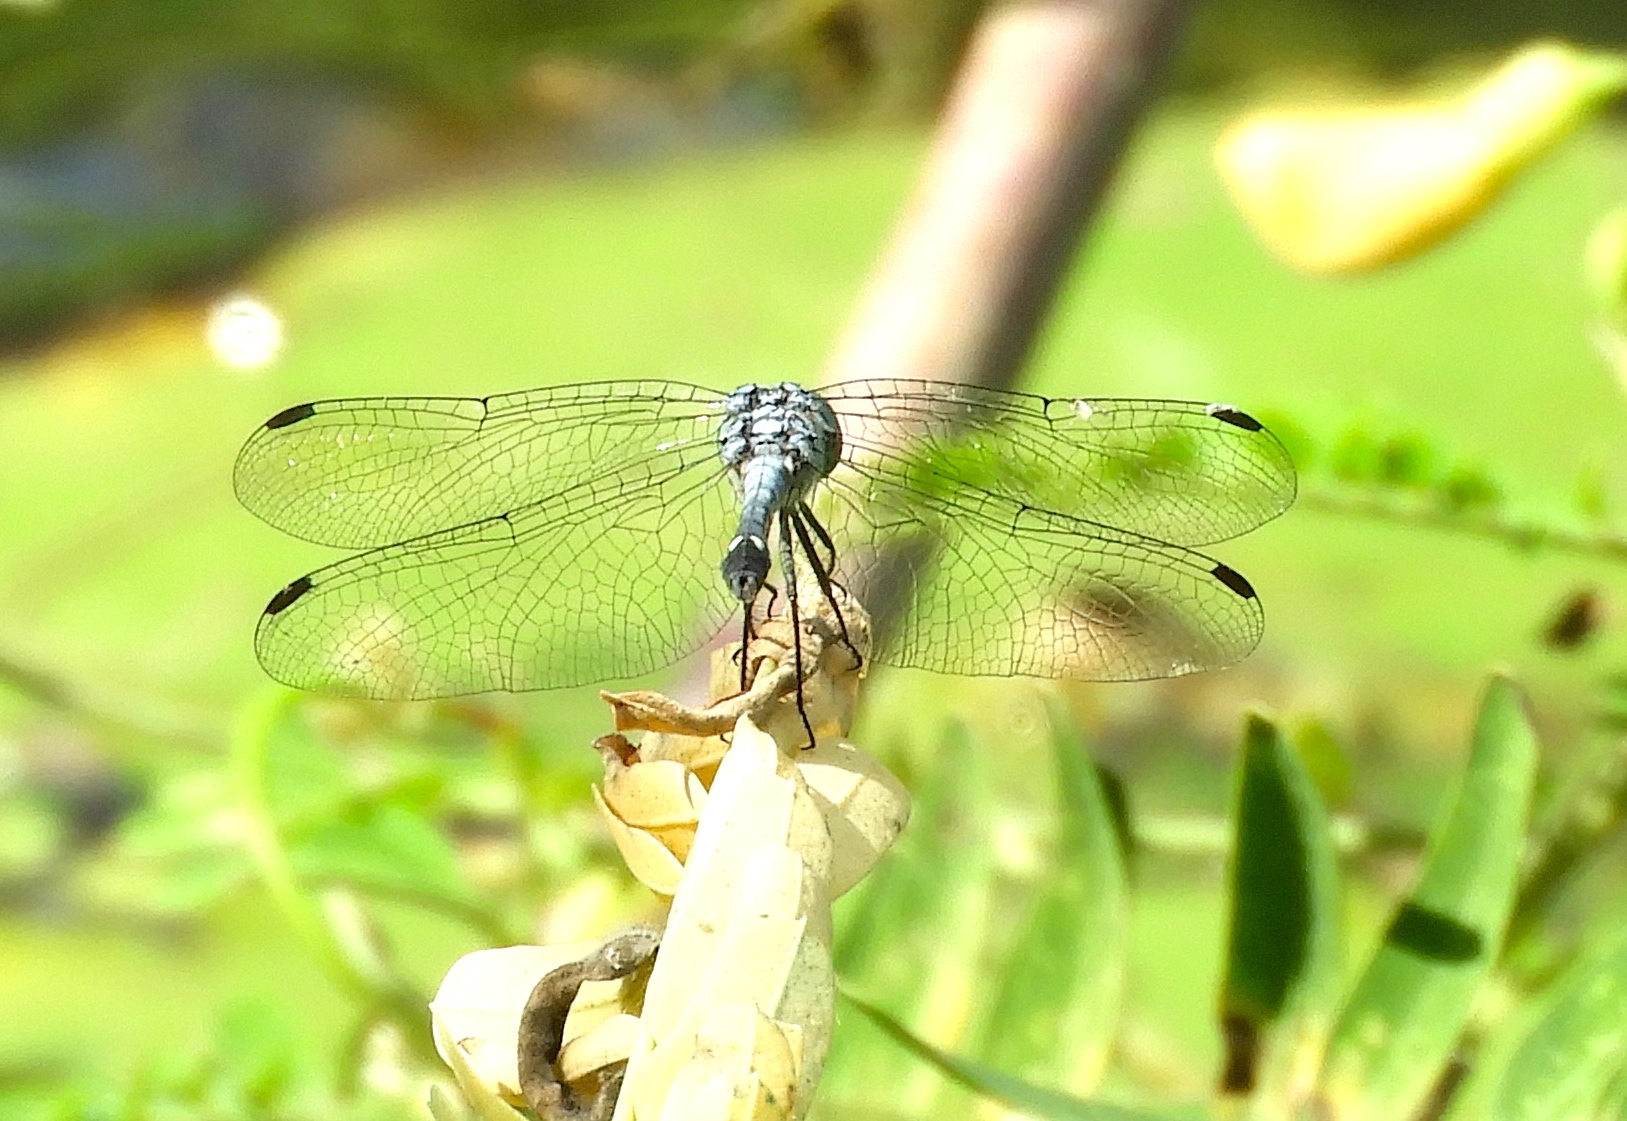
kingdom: Animalia
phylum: Arthropoda
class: Insecta
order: Odonata
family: Libellulidae
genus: Micrathyria
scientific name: Micrathyria aequalis
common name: Spot-tailed dasher
